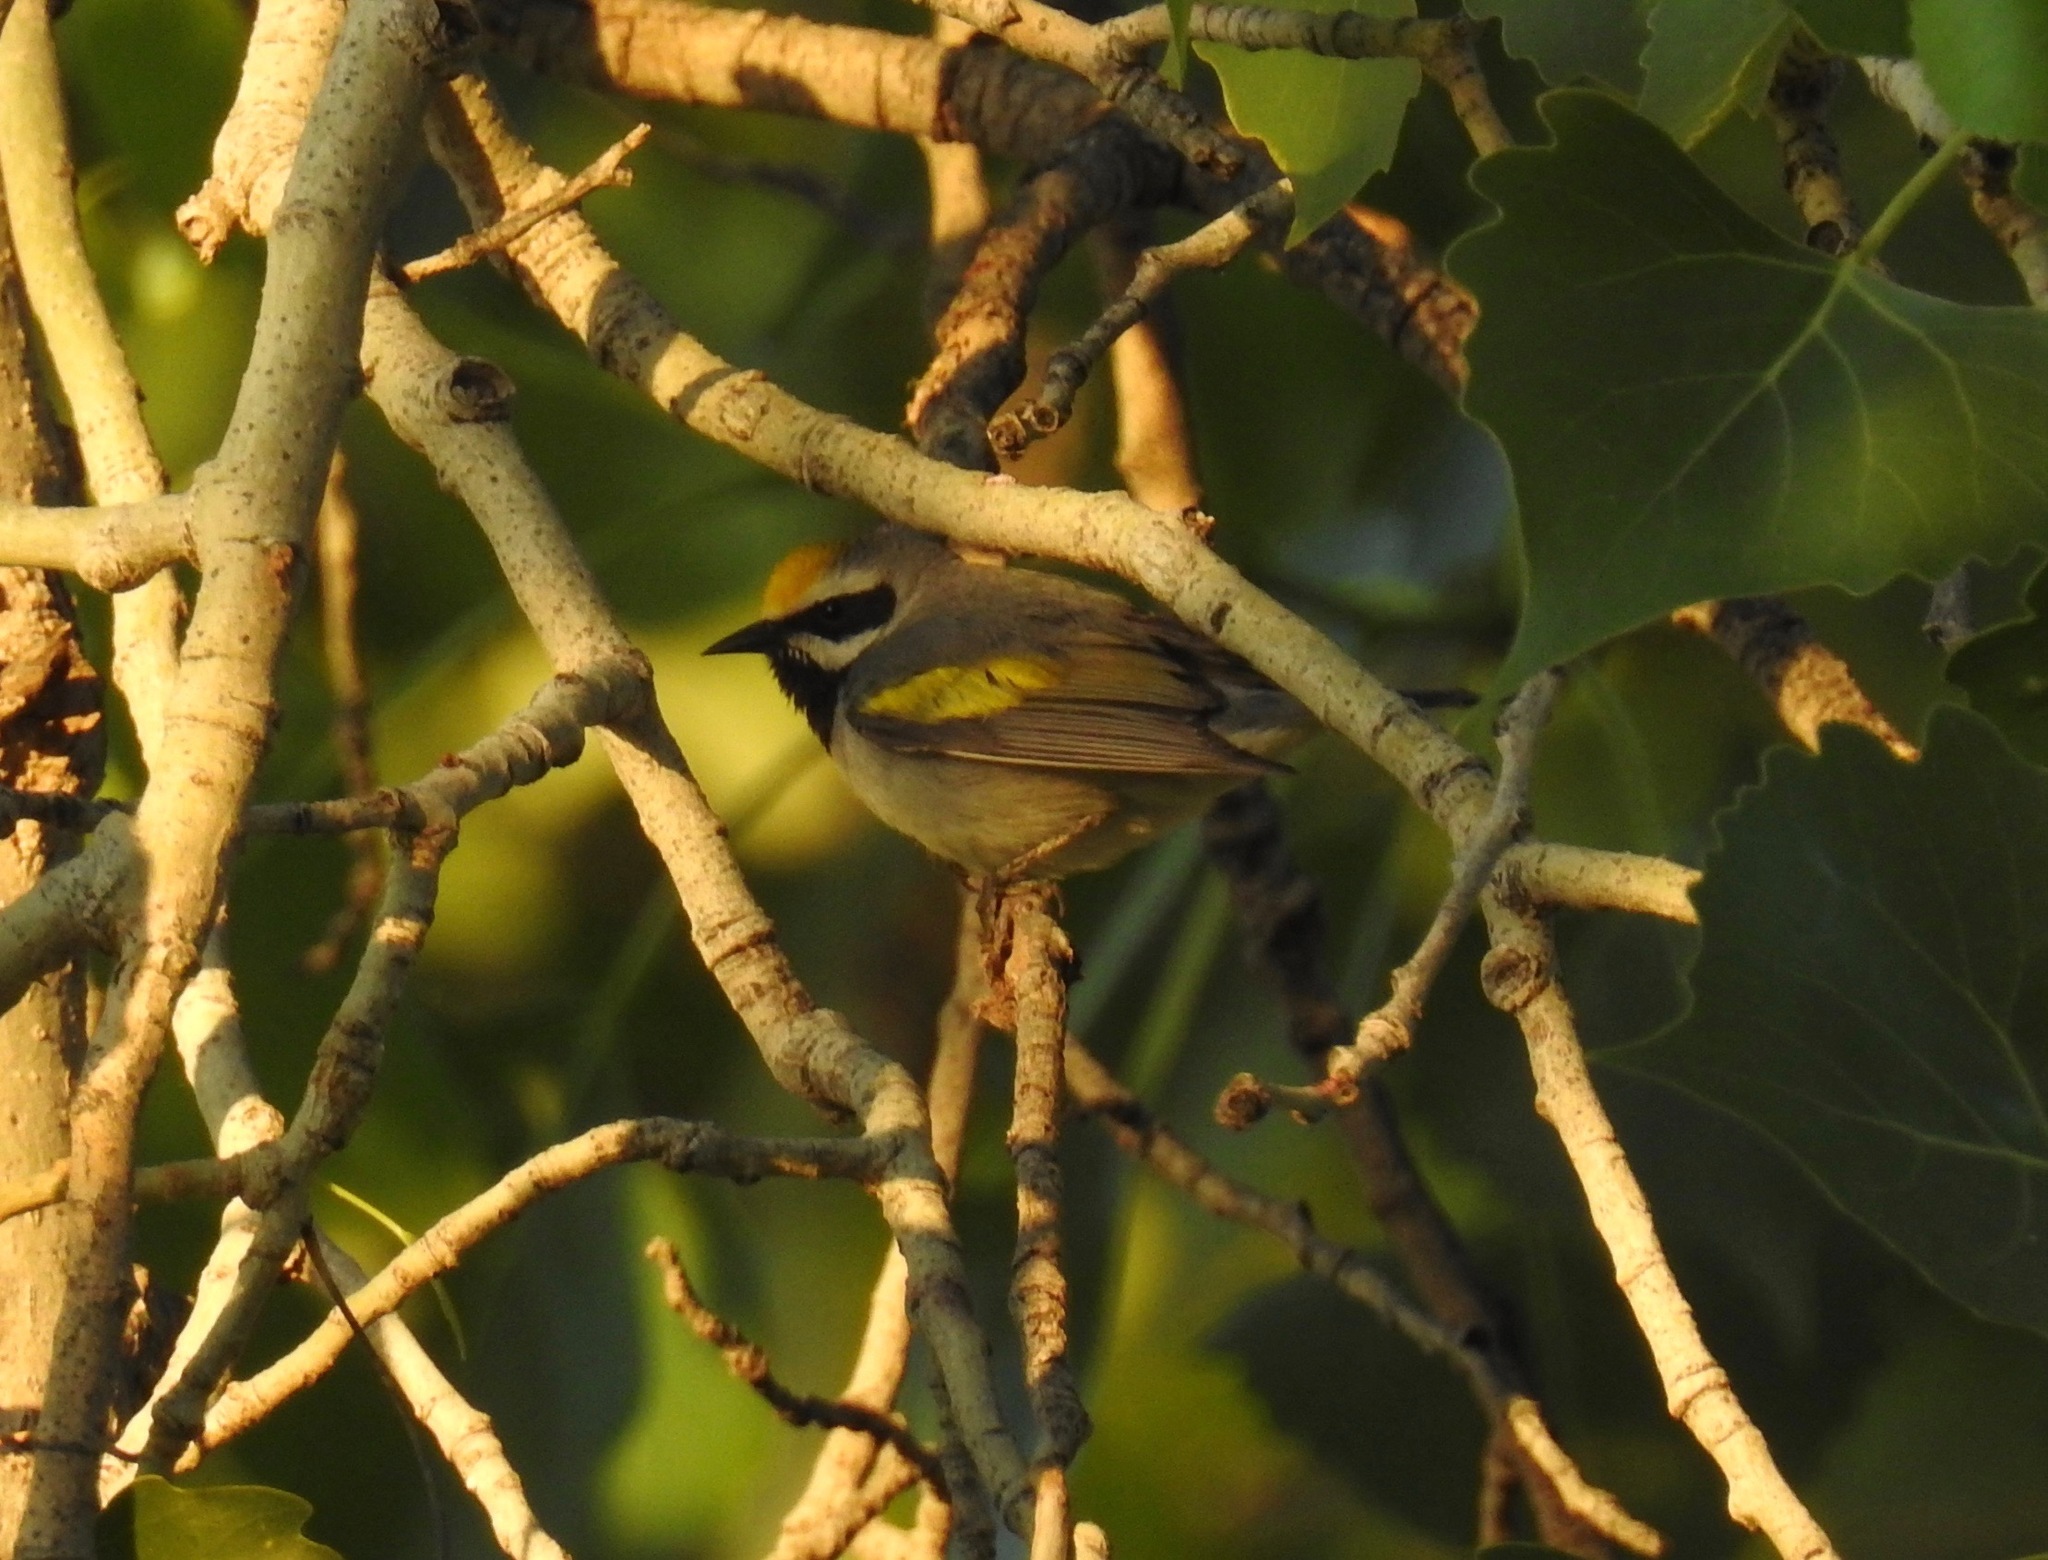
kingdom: Animalia
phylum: Chordata
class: Aves
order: Passeriformes
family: Parulidae
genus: Vermivora
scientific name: Vermivora chrysoptera
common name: Golden-winged warbler
